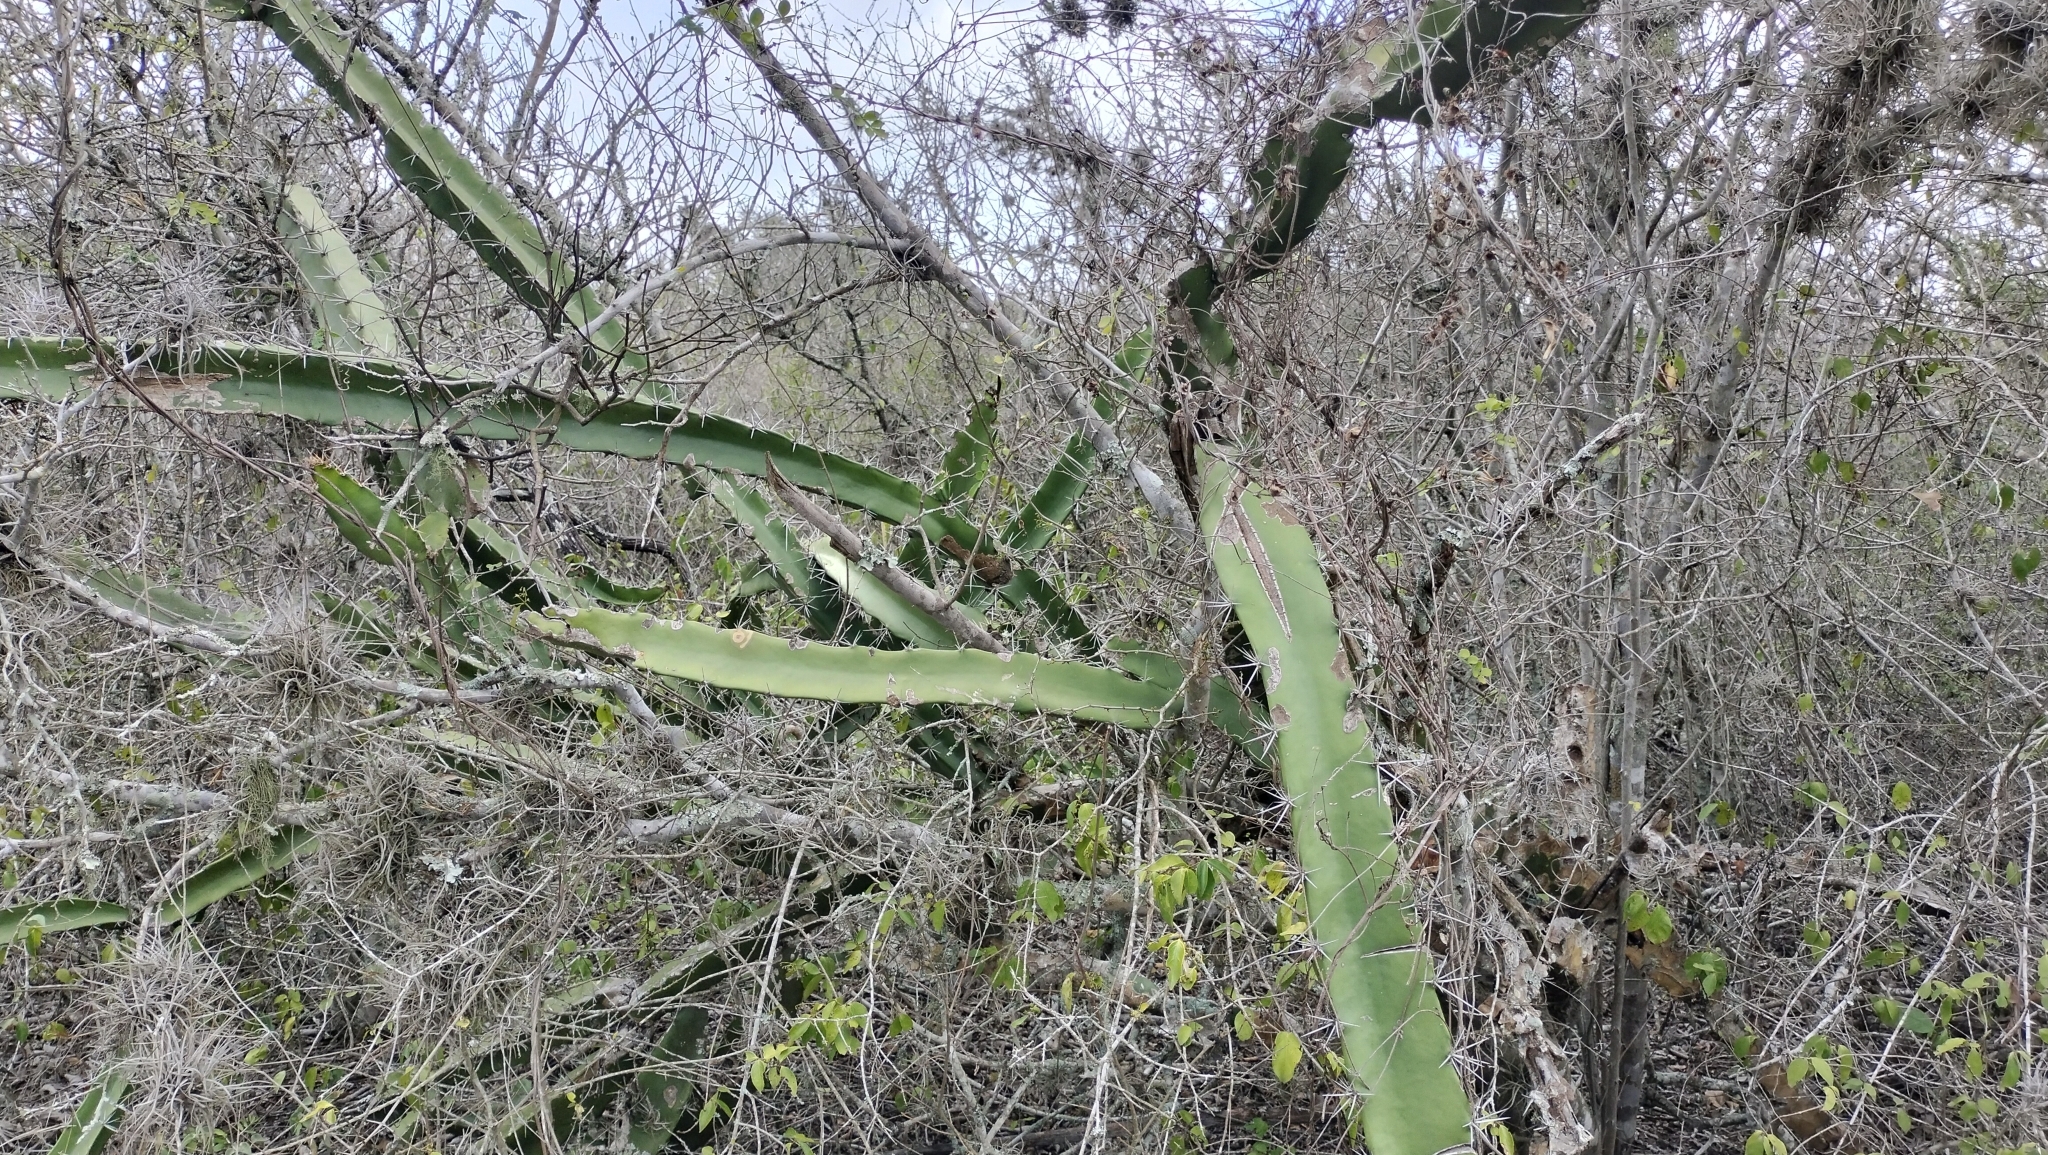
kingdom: Plantae
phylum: Tracheophyta
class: Magnoliopsida
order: Caryophyllales
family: Cactaceae
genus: Acanthocereus
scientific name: Acanthocereus tetragonus
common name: Triangle cactus
